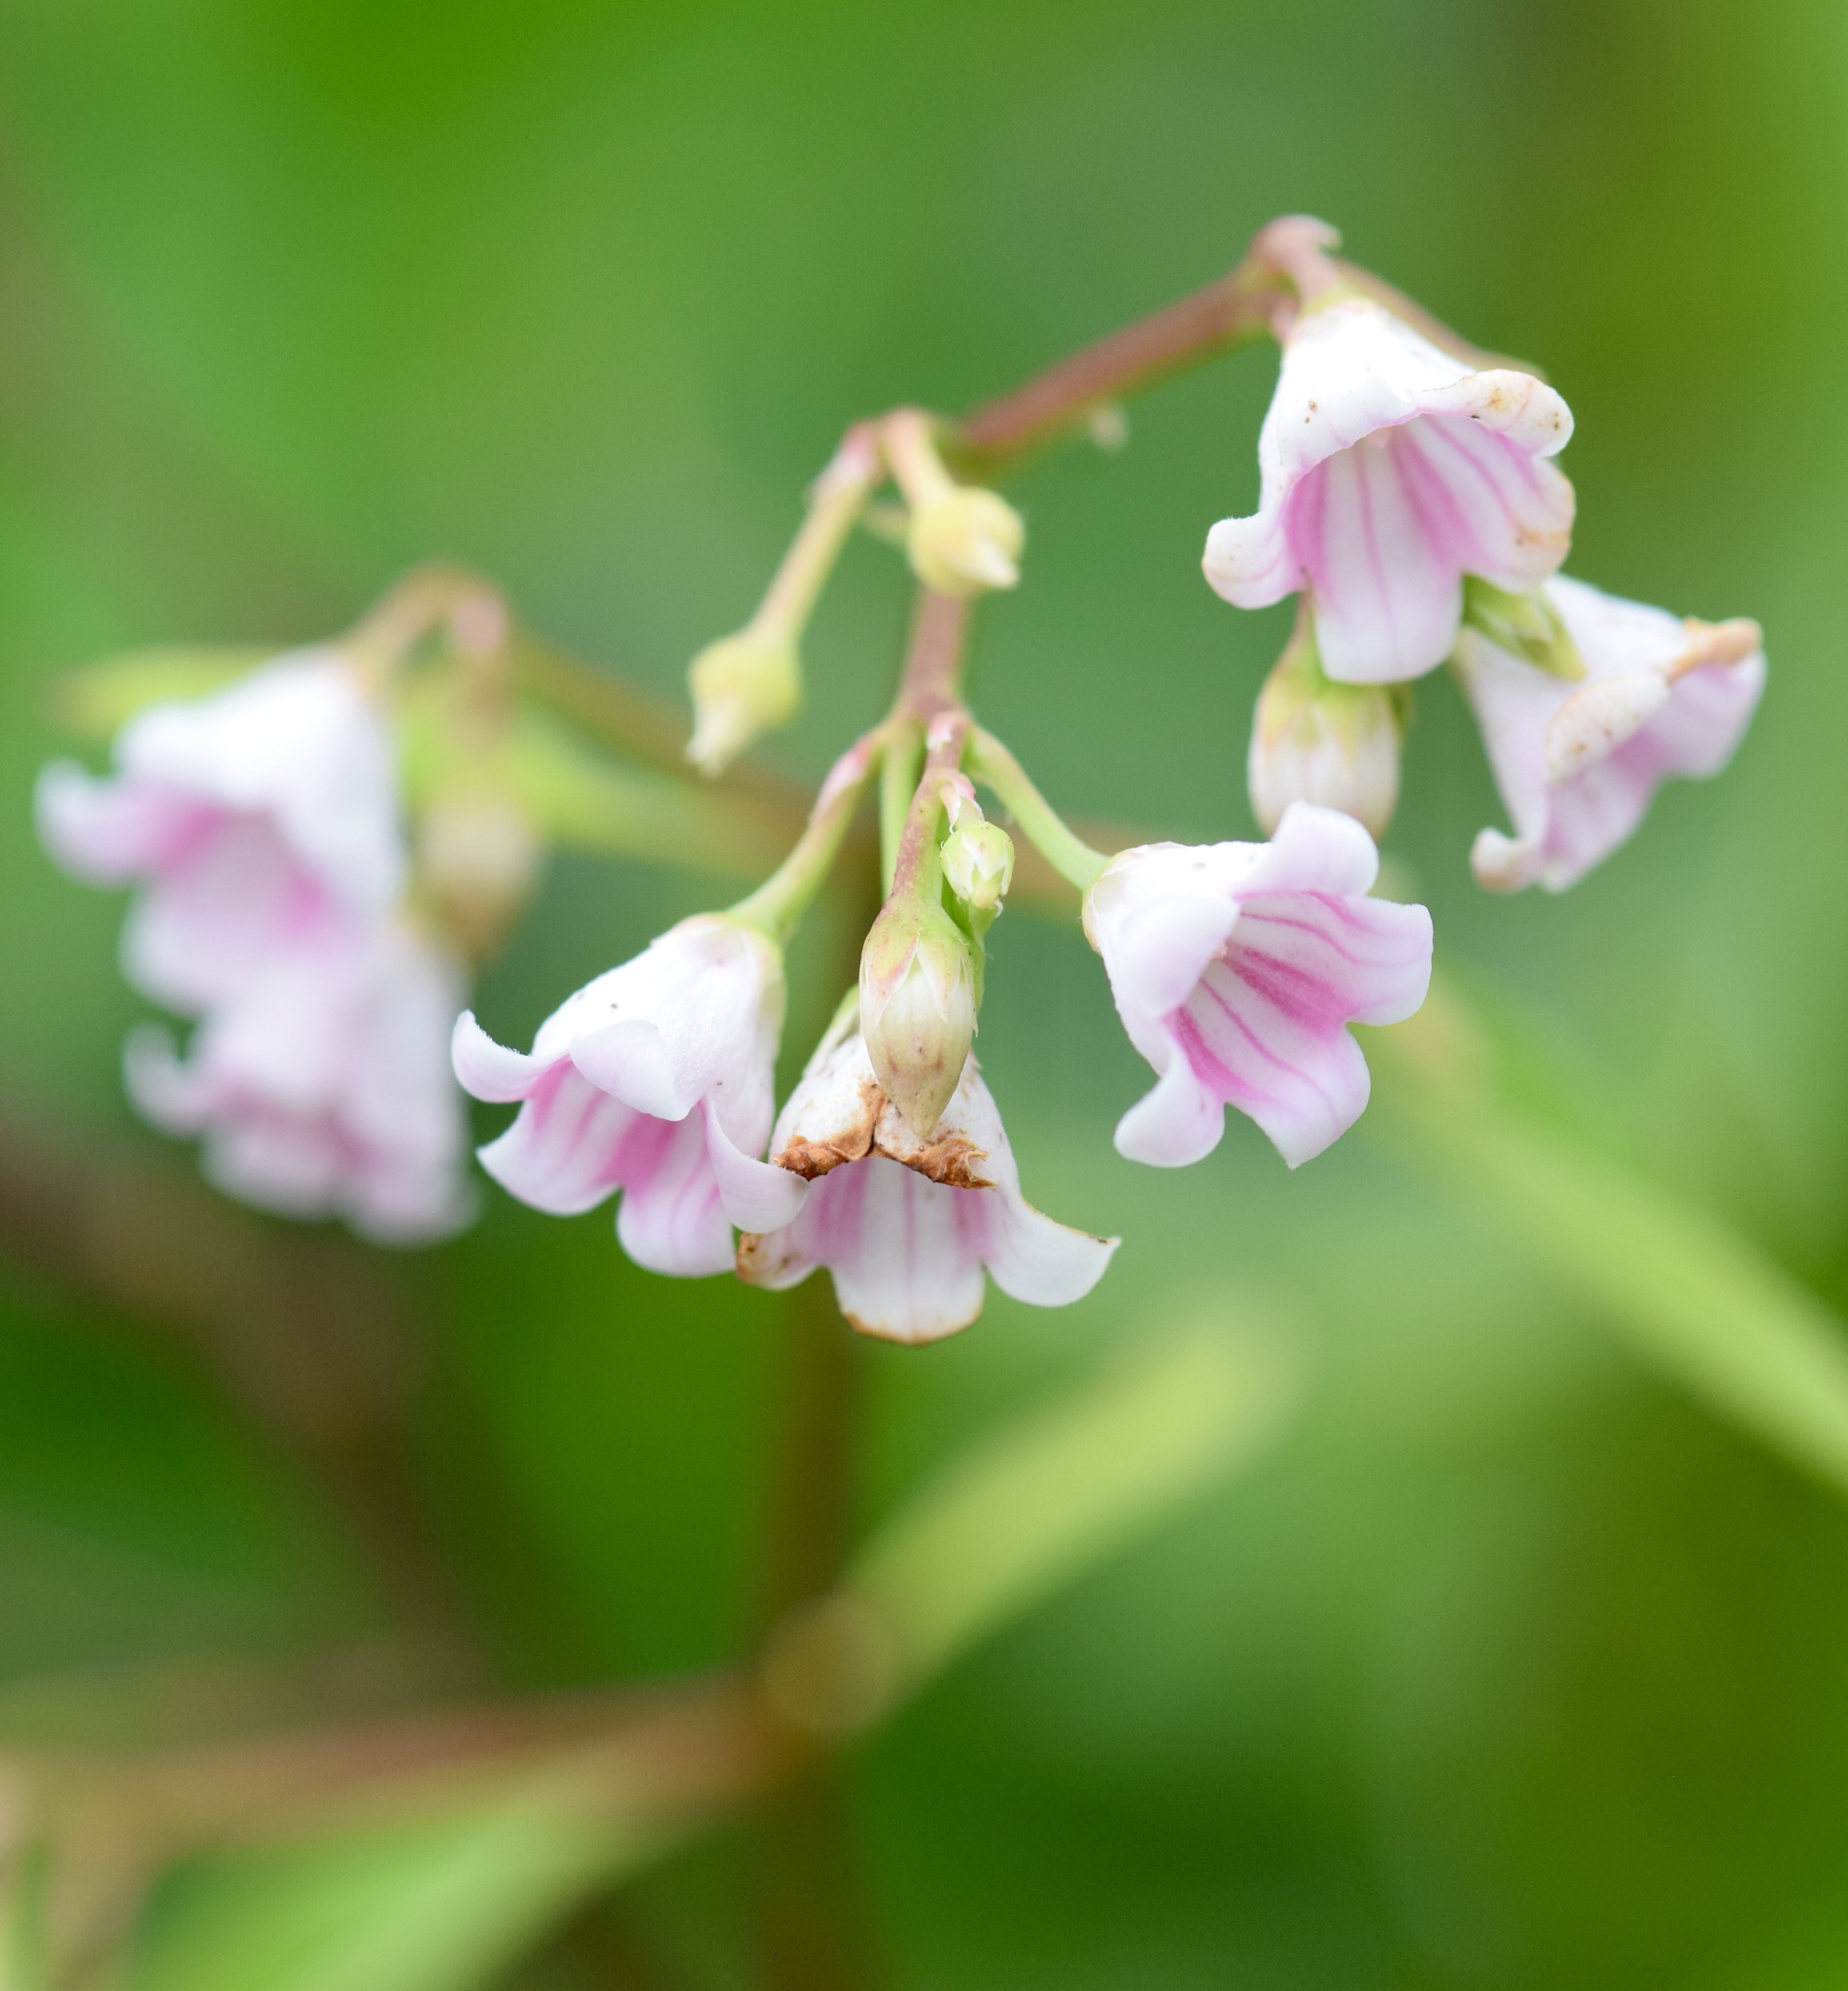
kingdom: Plantae
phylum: Tracheophyta
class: Magnoliopsida
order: Gentianales
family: Apocynaceae
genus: Apocynum
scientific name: Apocynum androsaemifolium
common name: Spreading dogbane
